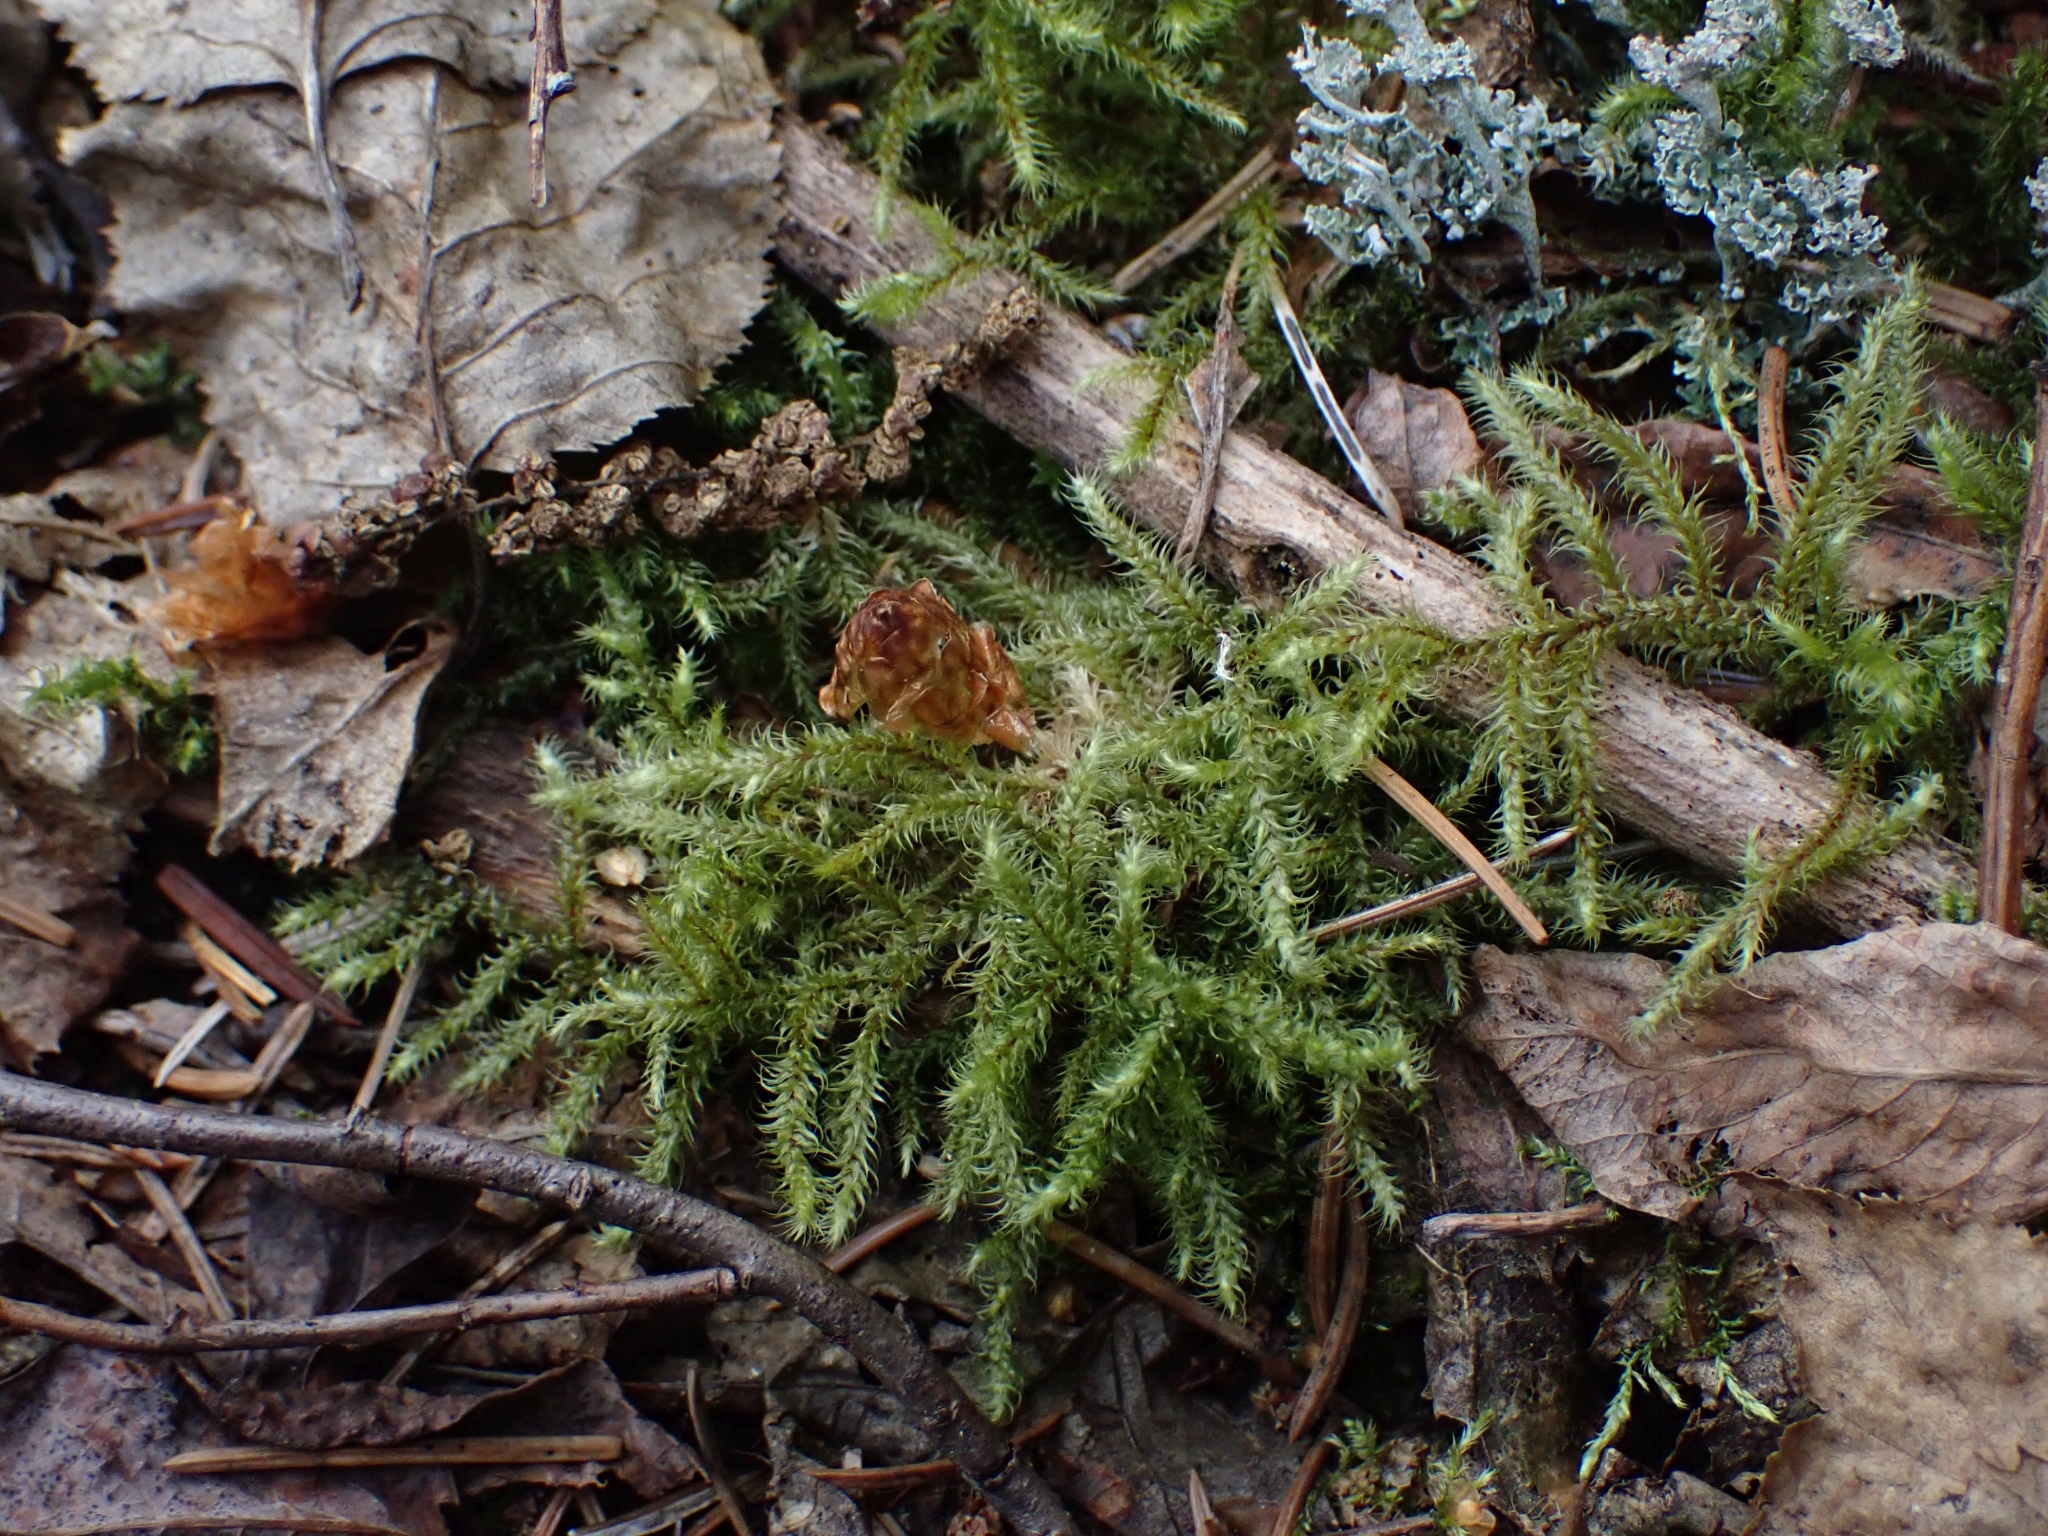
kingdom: Plantae
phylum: Bryophyta
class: Bryopsida
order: Hypnales
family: Hylocomiaceae
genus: Rhytidiadelphus
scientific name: Rhytidiadelphus loreus
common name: Lanky moss
